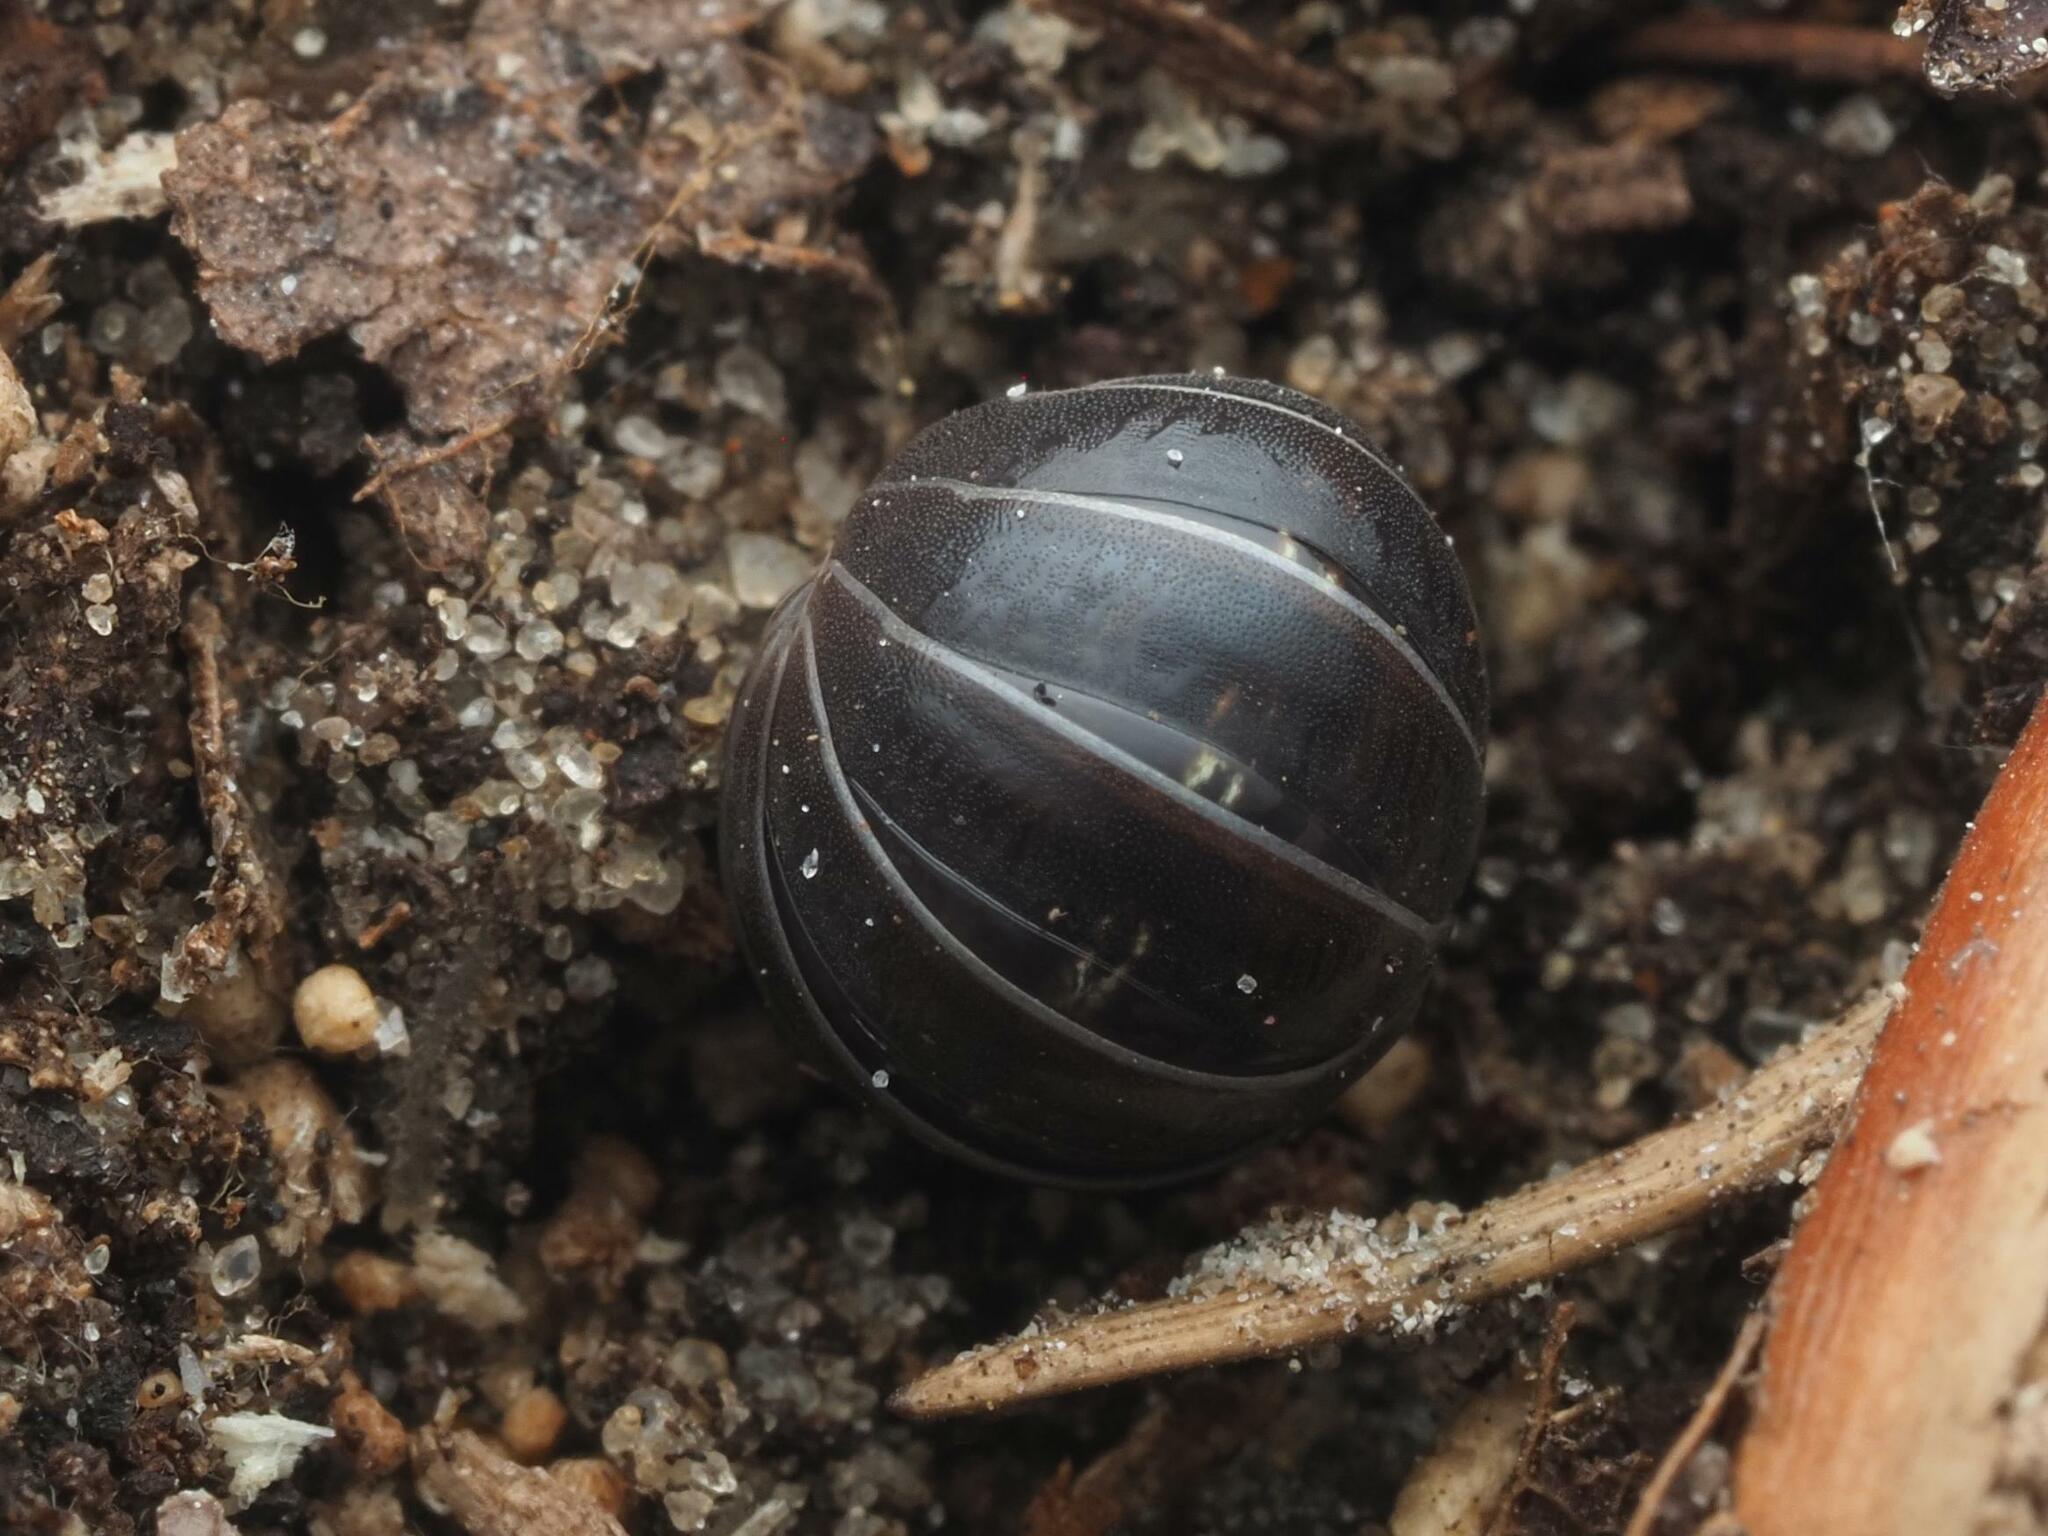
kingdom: Animalia
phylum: Arthropoda
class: Malacostraca
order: Isopoda
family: Armadillidiidae
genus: Armadillidium
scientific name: Armadillidium vulgare
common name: Common pill woodlouse
